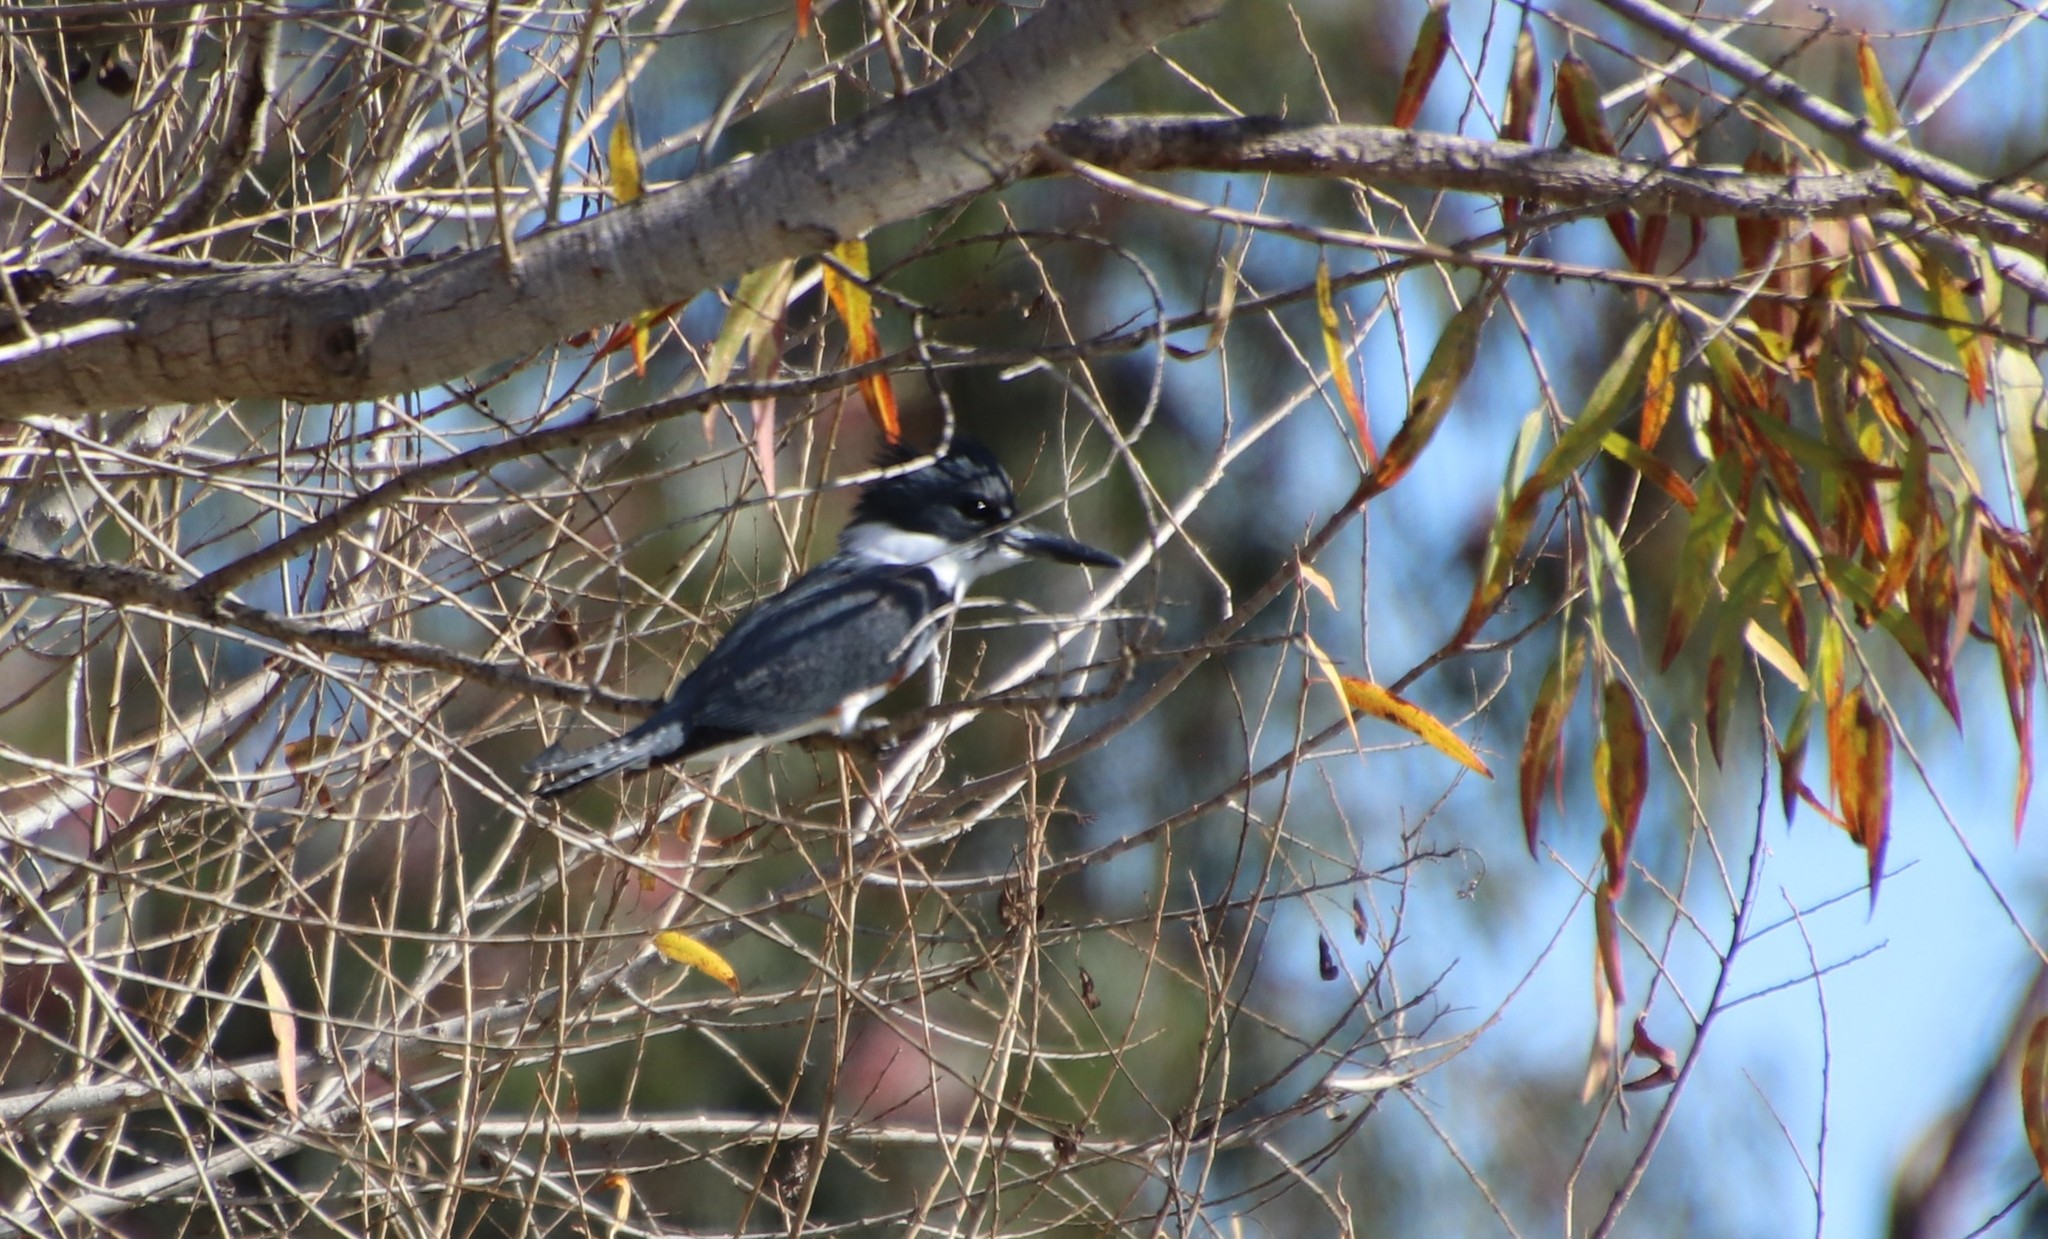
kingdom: Animalia
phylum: Chordata
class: Aves
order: Coraciiformes
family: Alcedinidae
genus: Megaceryle
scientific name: Megaceryle alcyon
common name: Belted kingfisher
